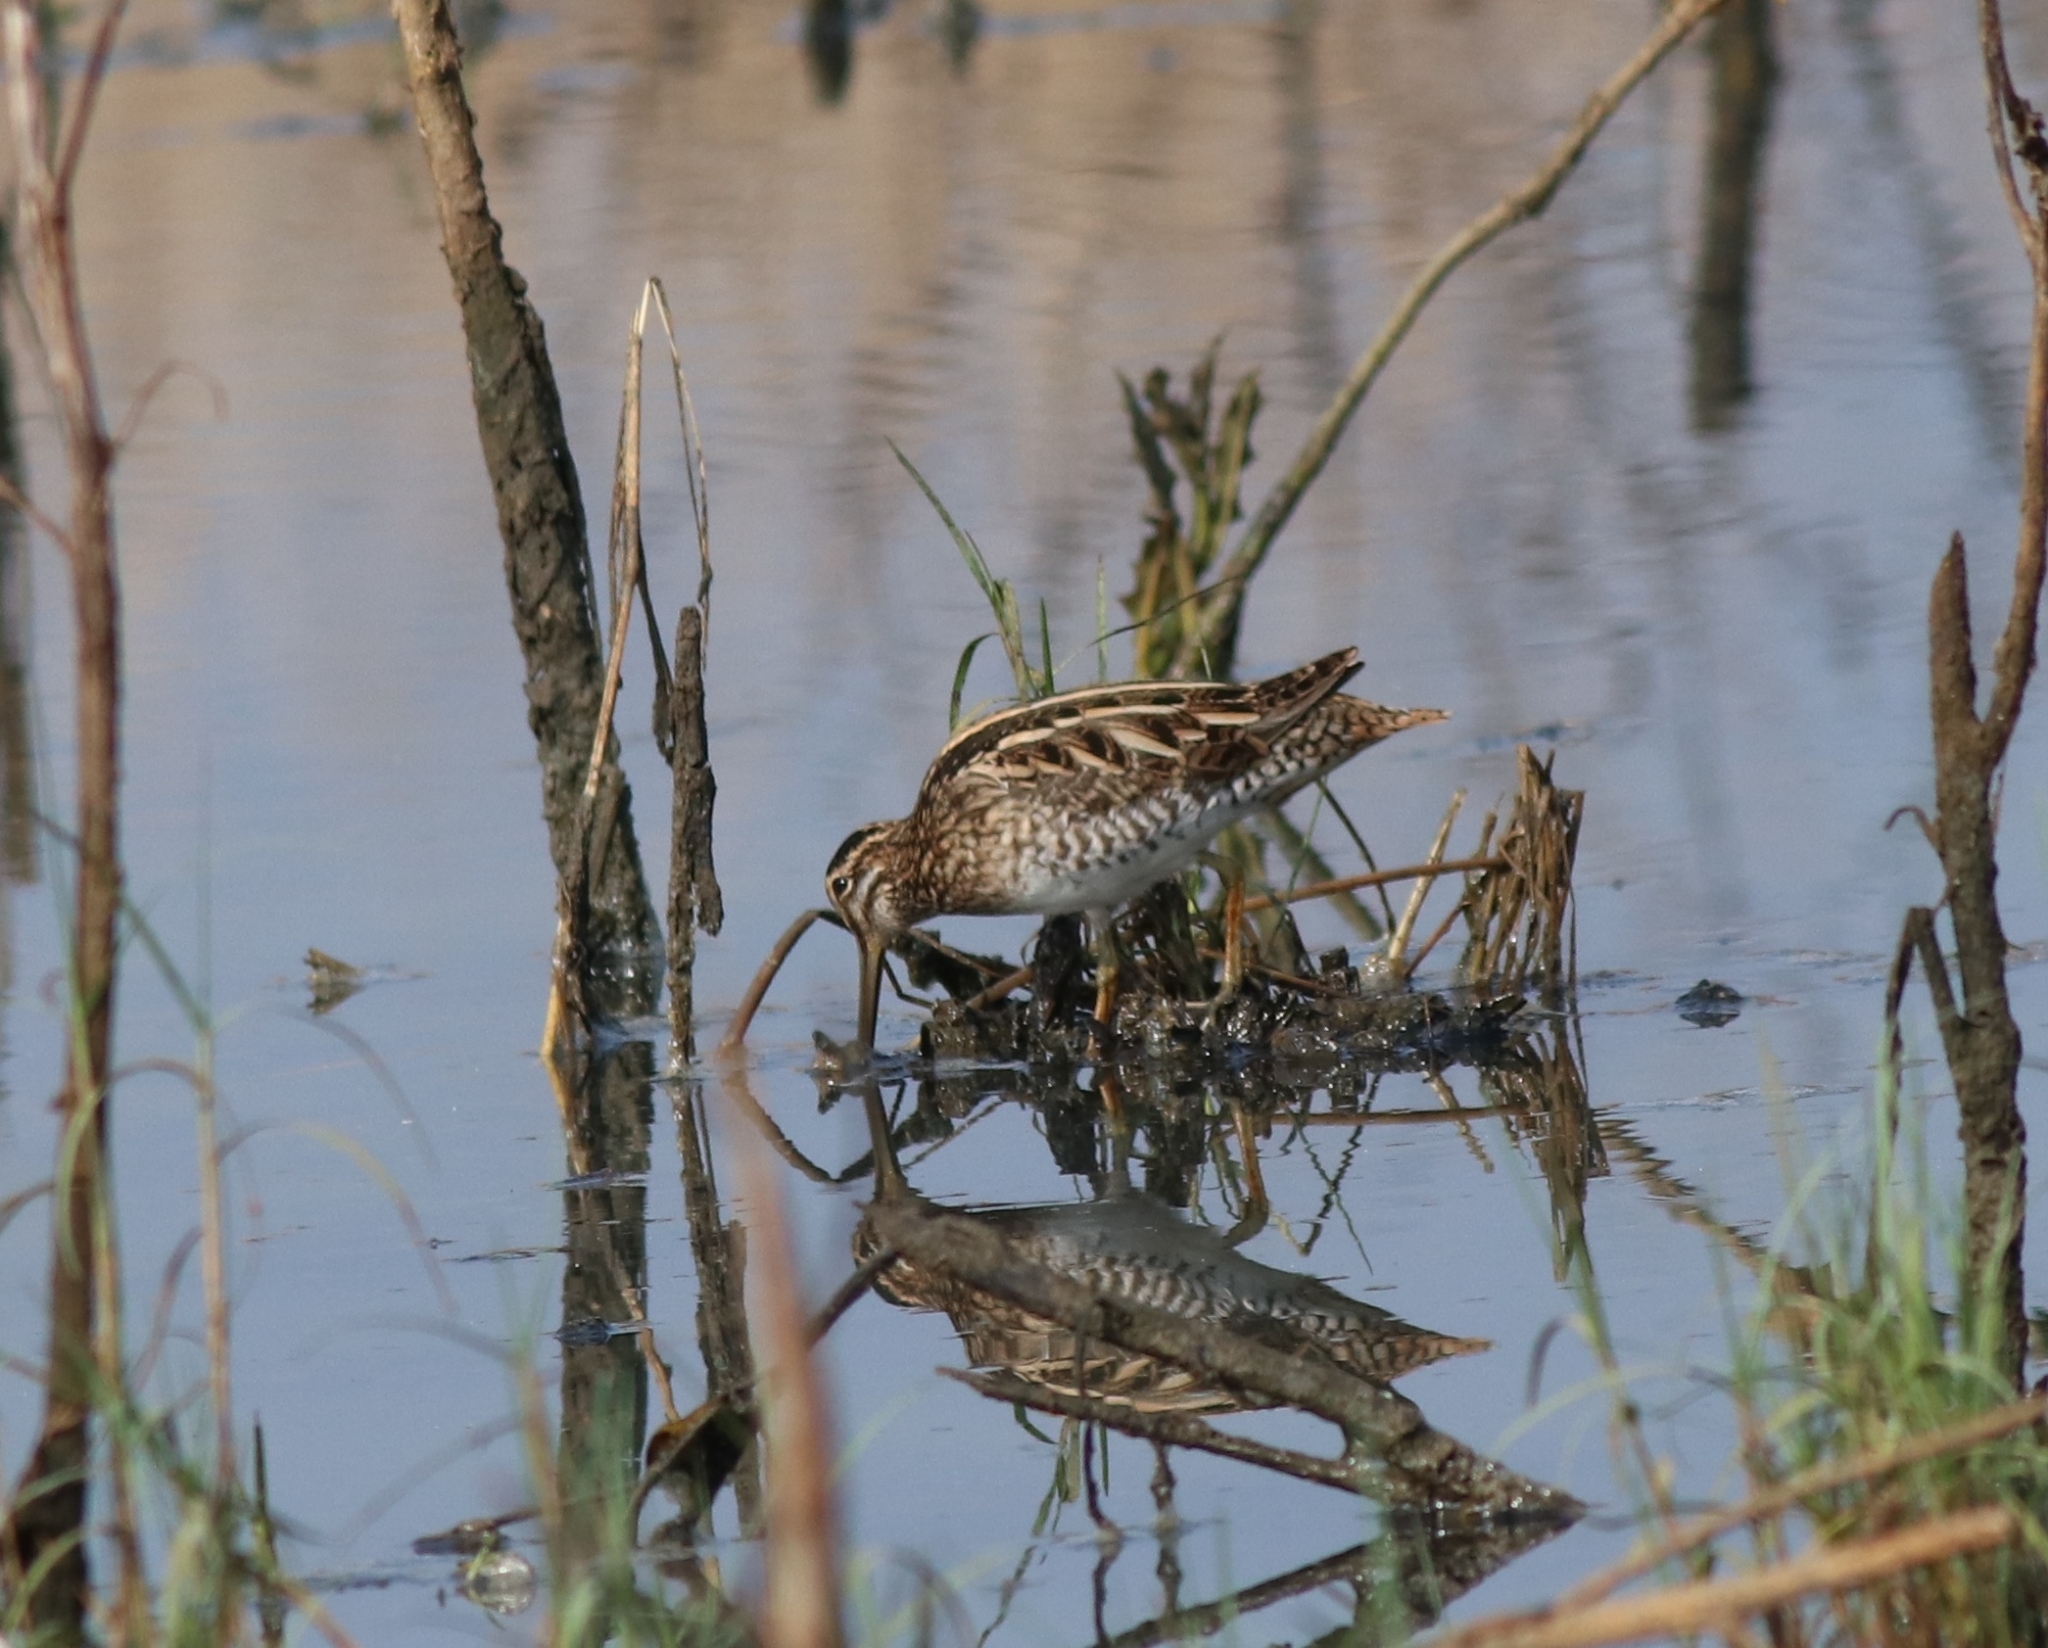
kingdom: Animalia
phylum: Chordata
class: Aves
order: Charadriiformes
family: Scolopacidae
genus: Gallinago
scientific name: Gallinago gallinago
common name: Common snipe
